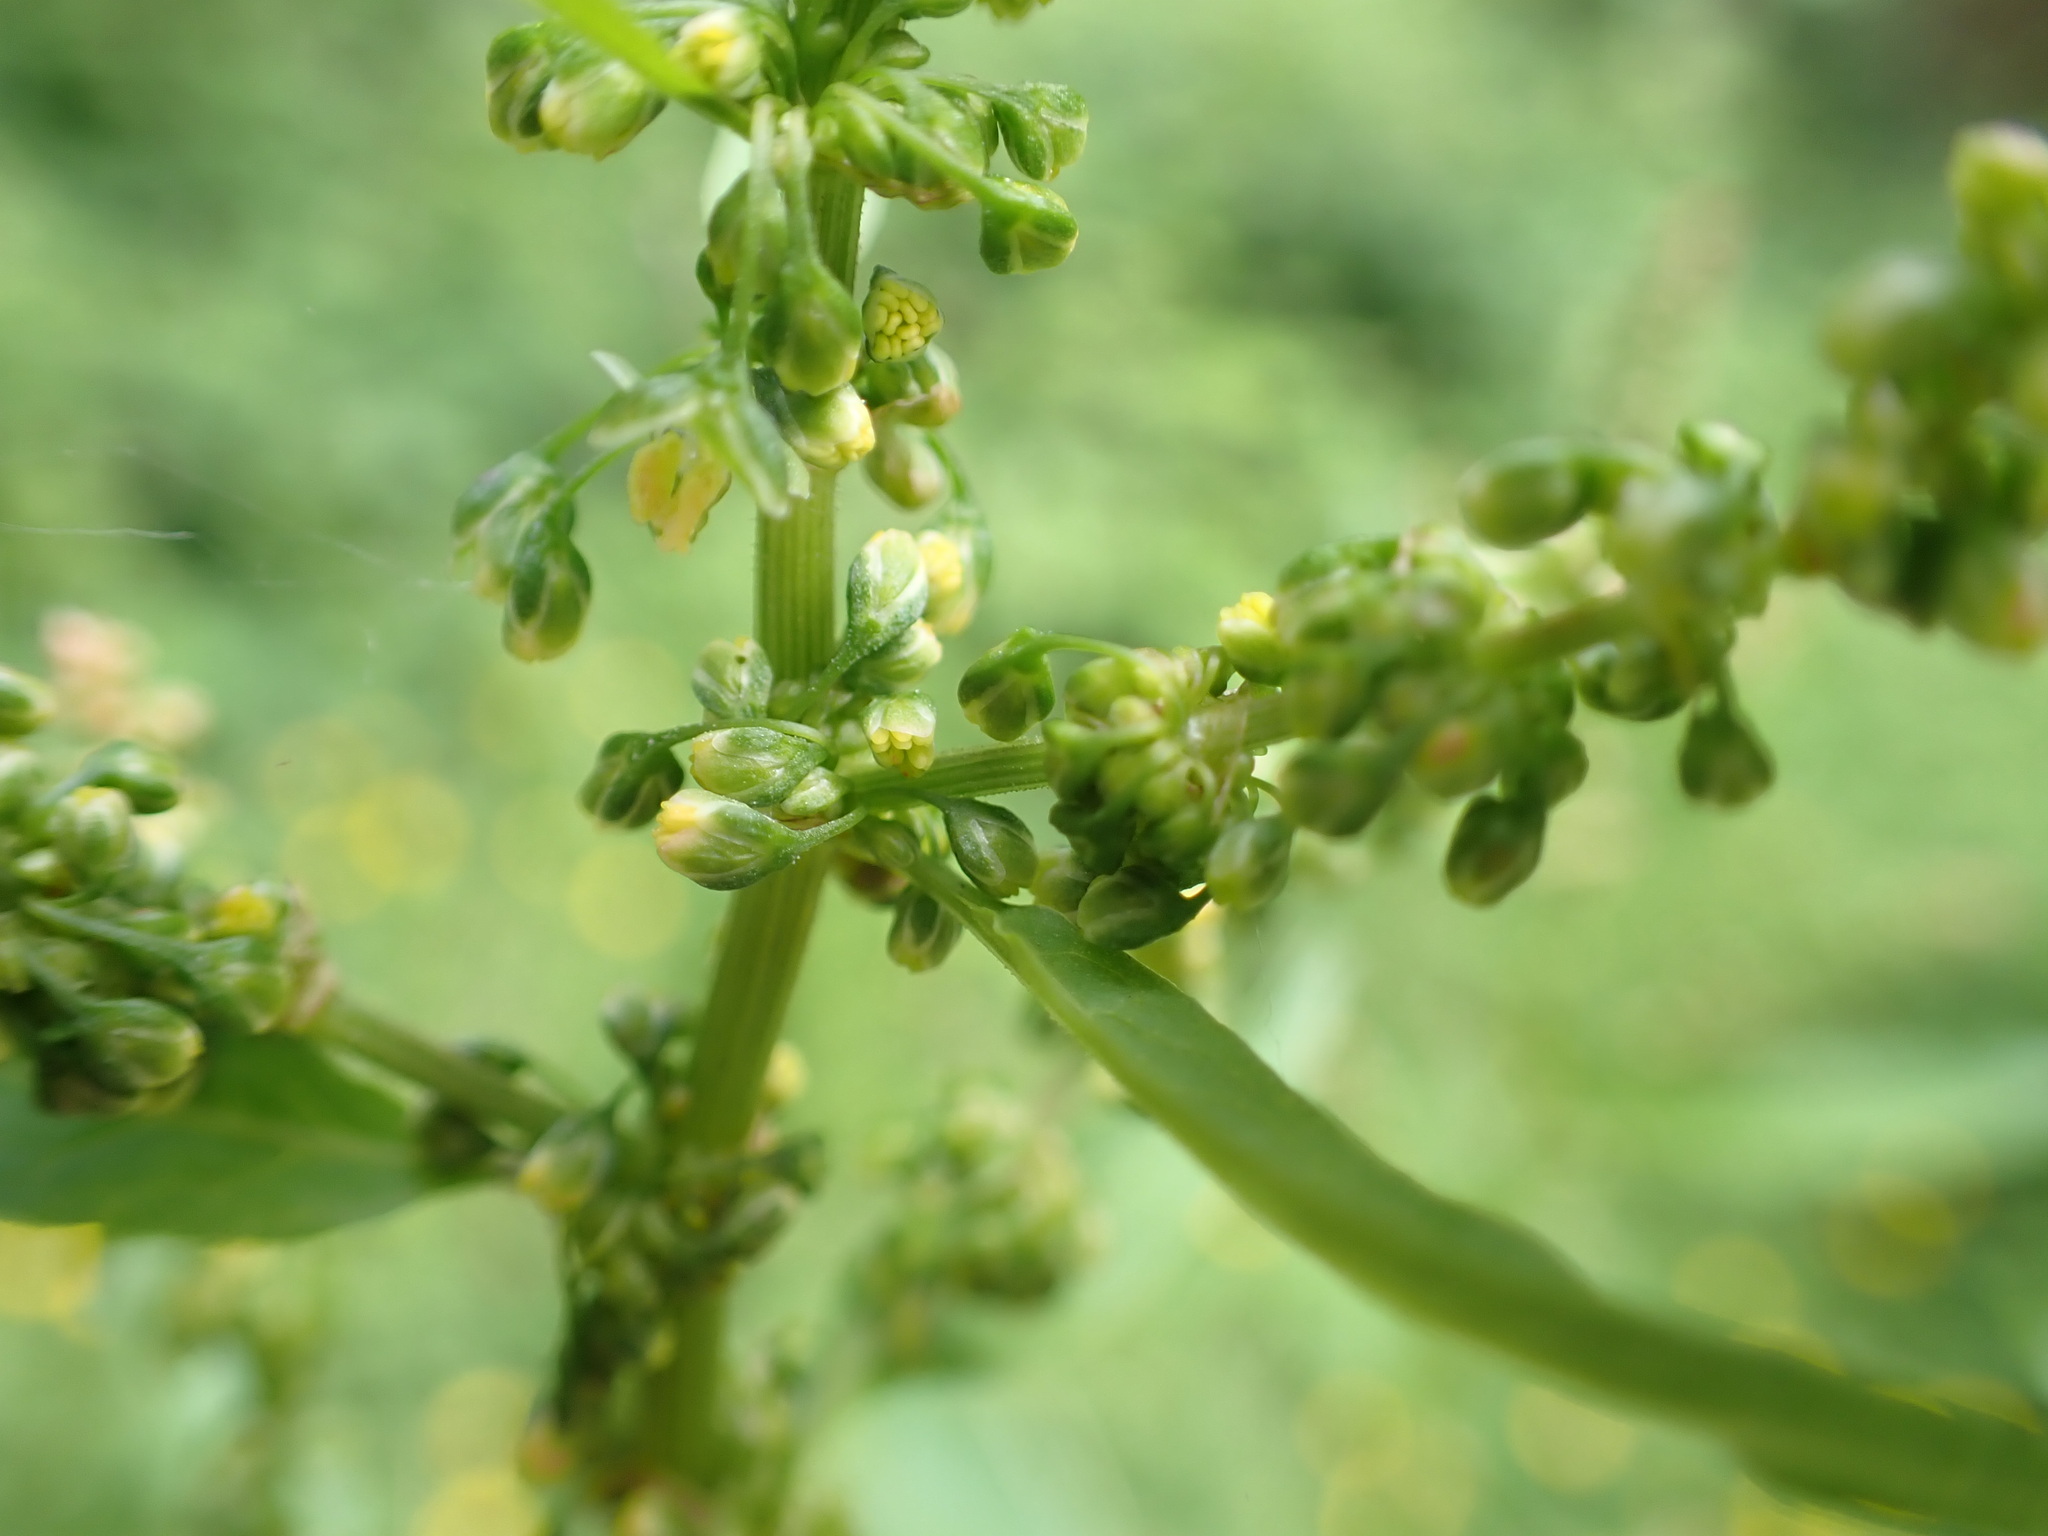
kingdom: Plantae
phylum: Tracheophyta
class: Magnoliopsida
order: Caryophyllales
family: Polygonaceae
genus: Rumex
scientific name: Rumex obtusifolius
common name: Bitter dock
